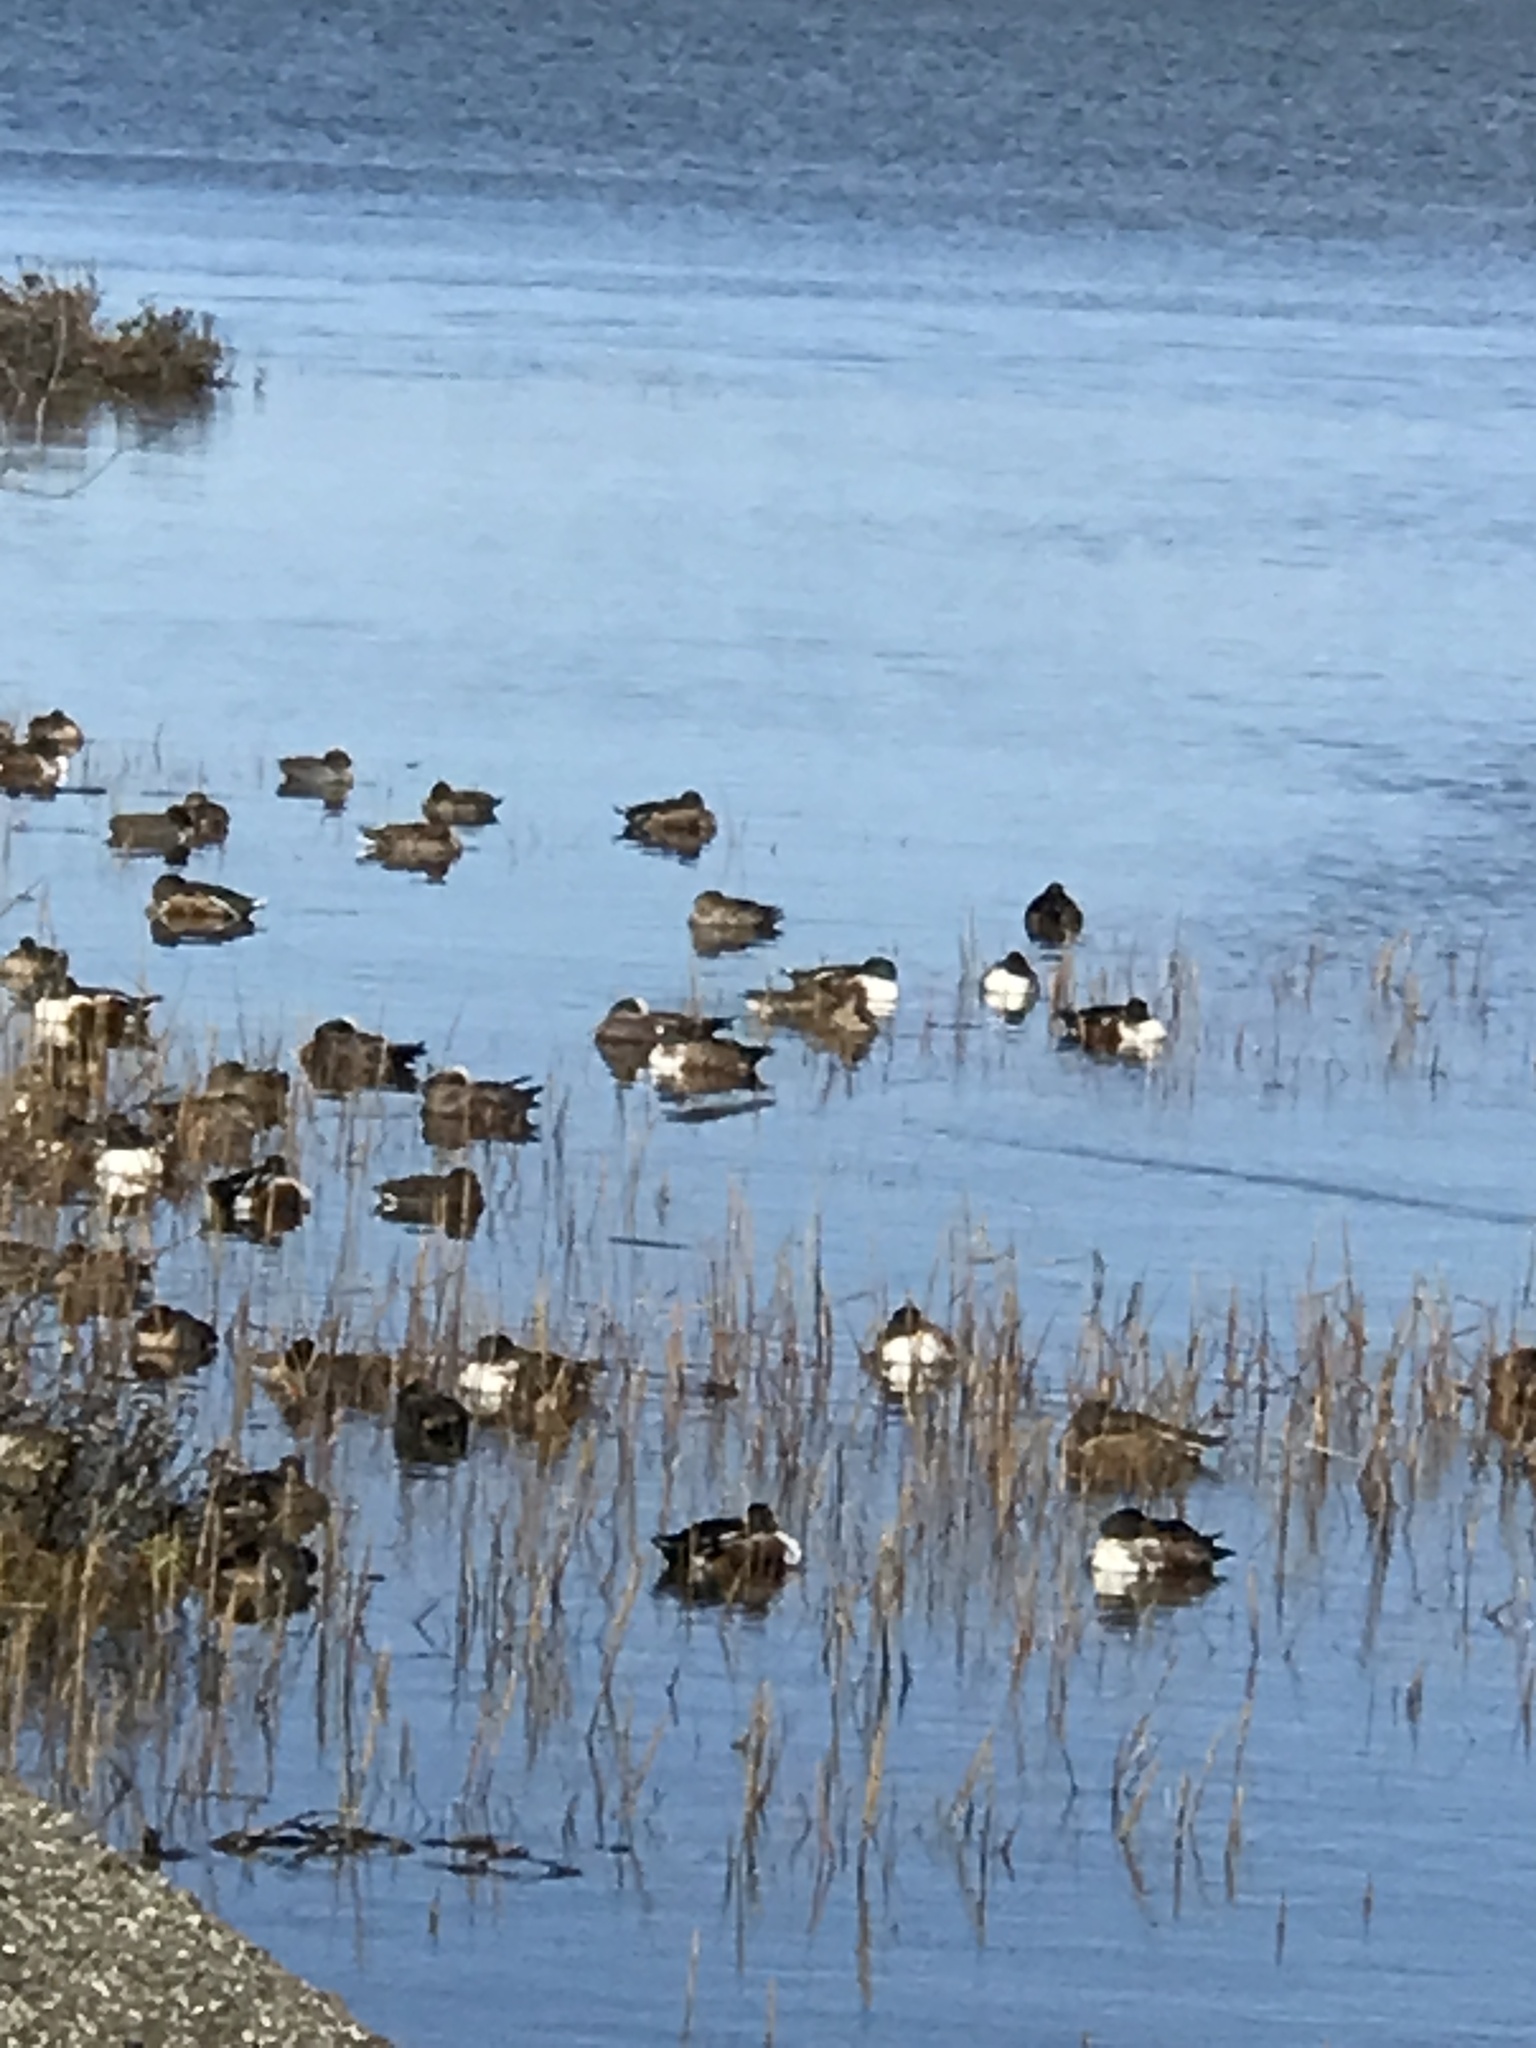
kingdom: Animalia
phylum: Chordata
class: Aves
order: Anseriformes
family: Anatidae
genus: Spatula
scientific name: Spatula clypeata
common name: Northern shoveler
